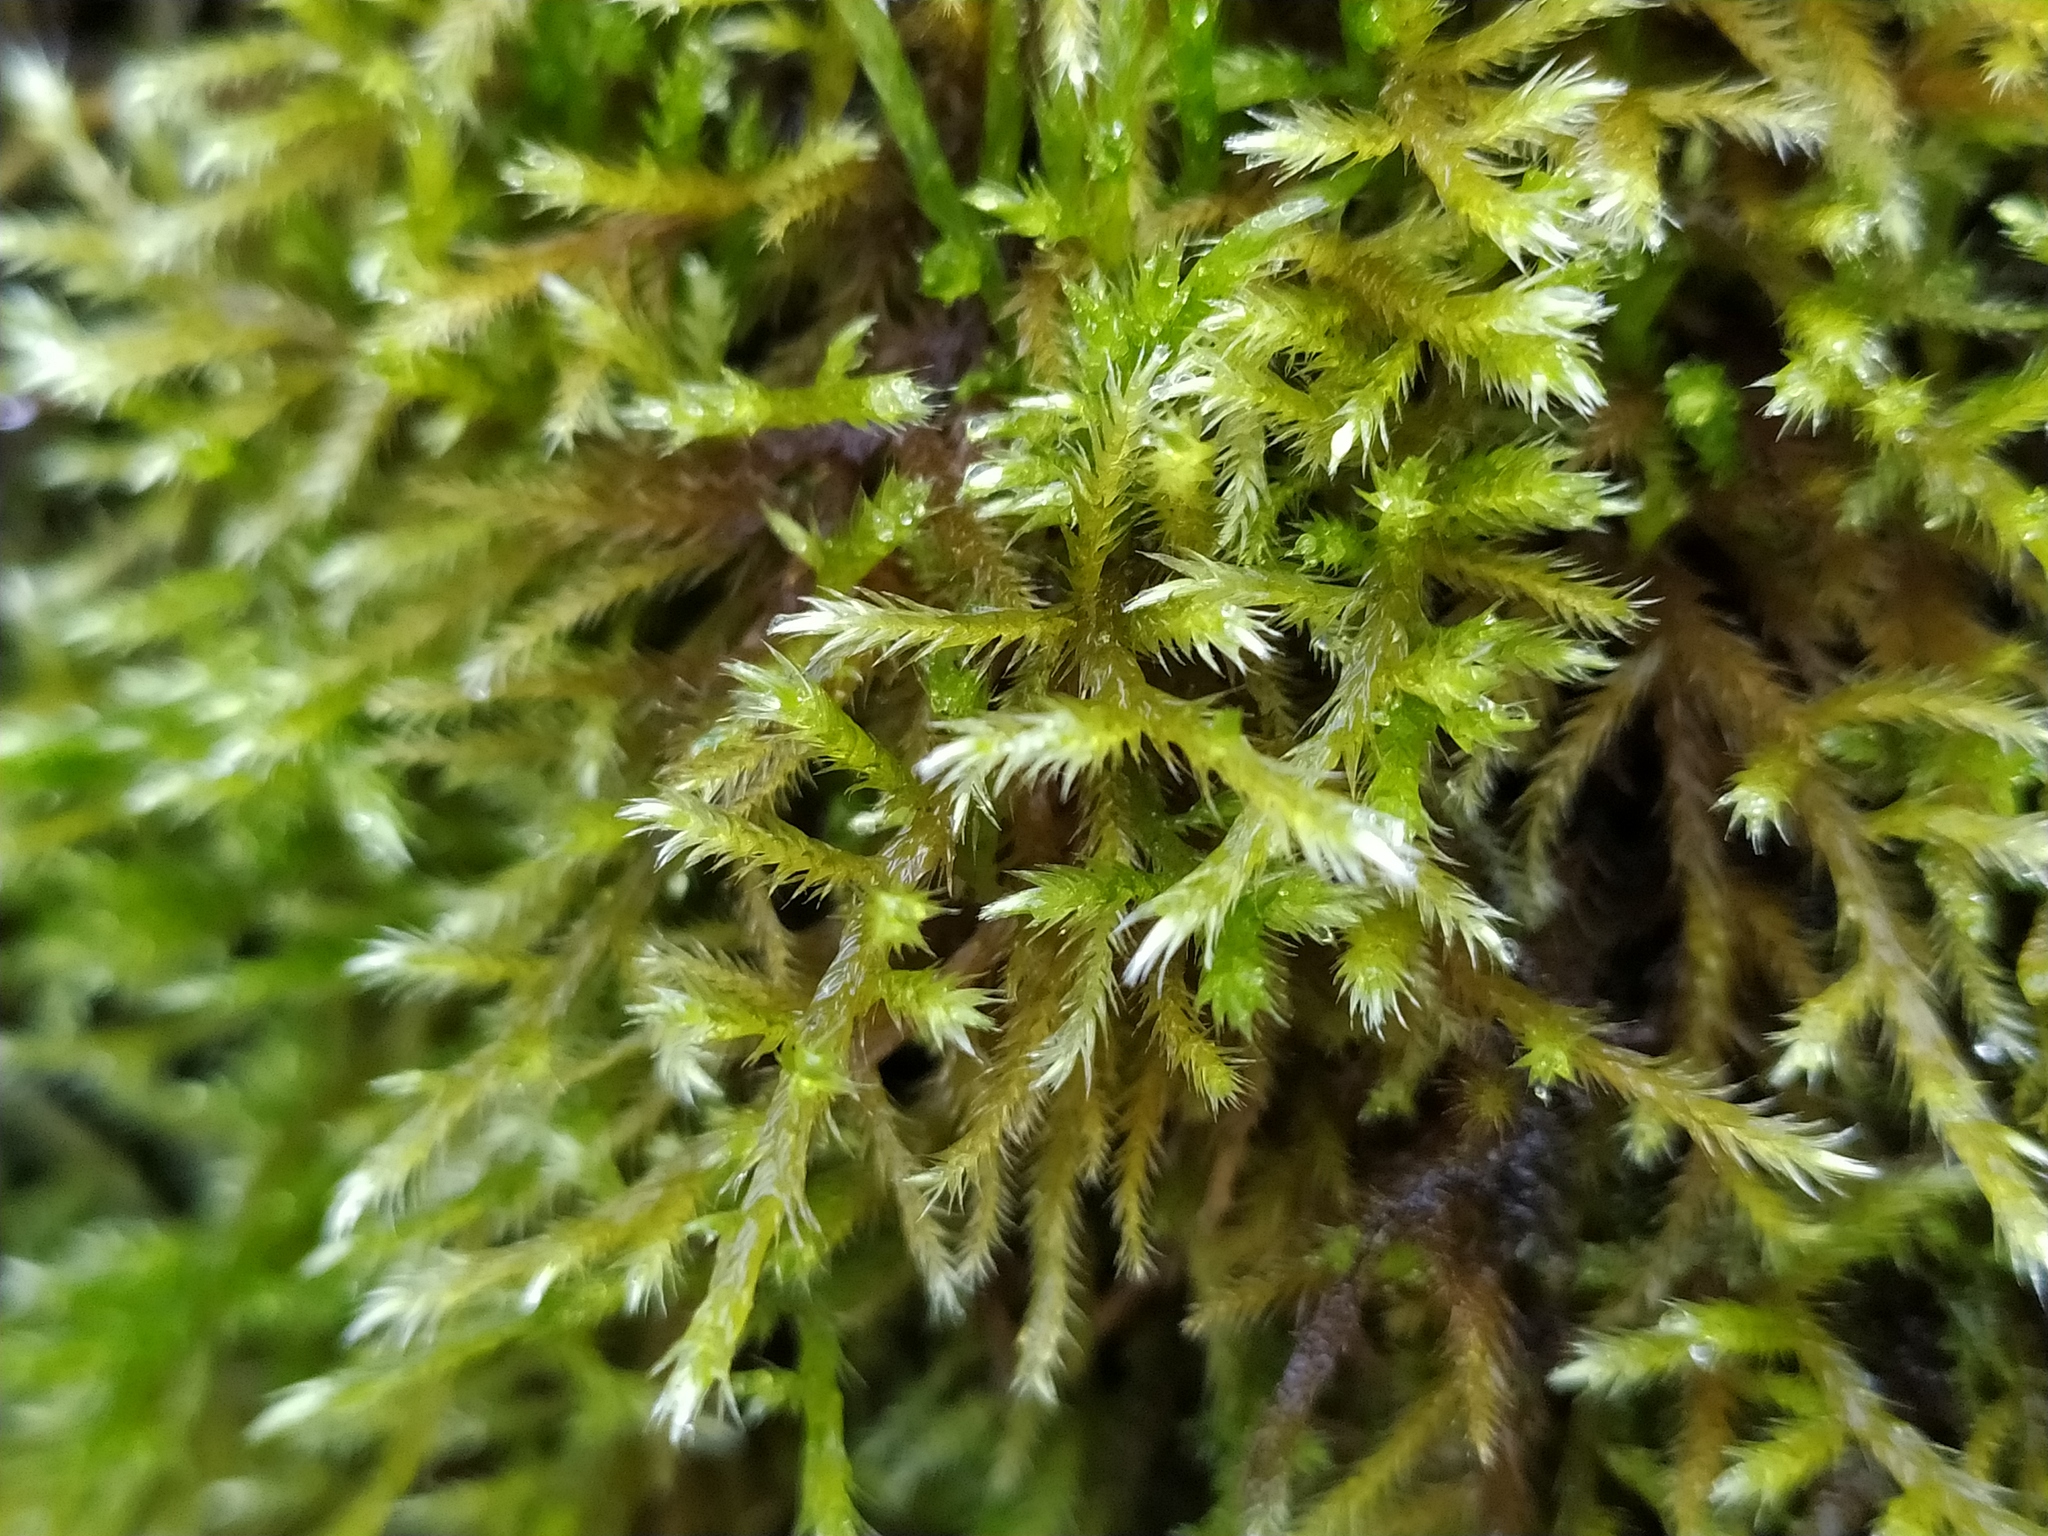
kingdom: Plantae
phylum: Bryophyta
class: Bryopsida
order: Hypnales
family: Brachytheciaceae
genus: Homalothecium
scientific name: Homalothecium lutescens
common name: Yellow feather-moss
